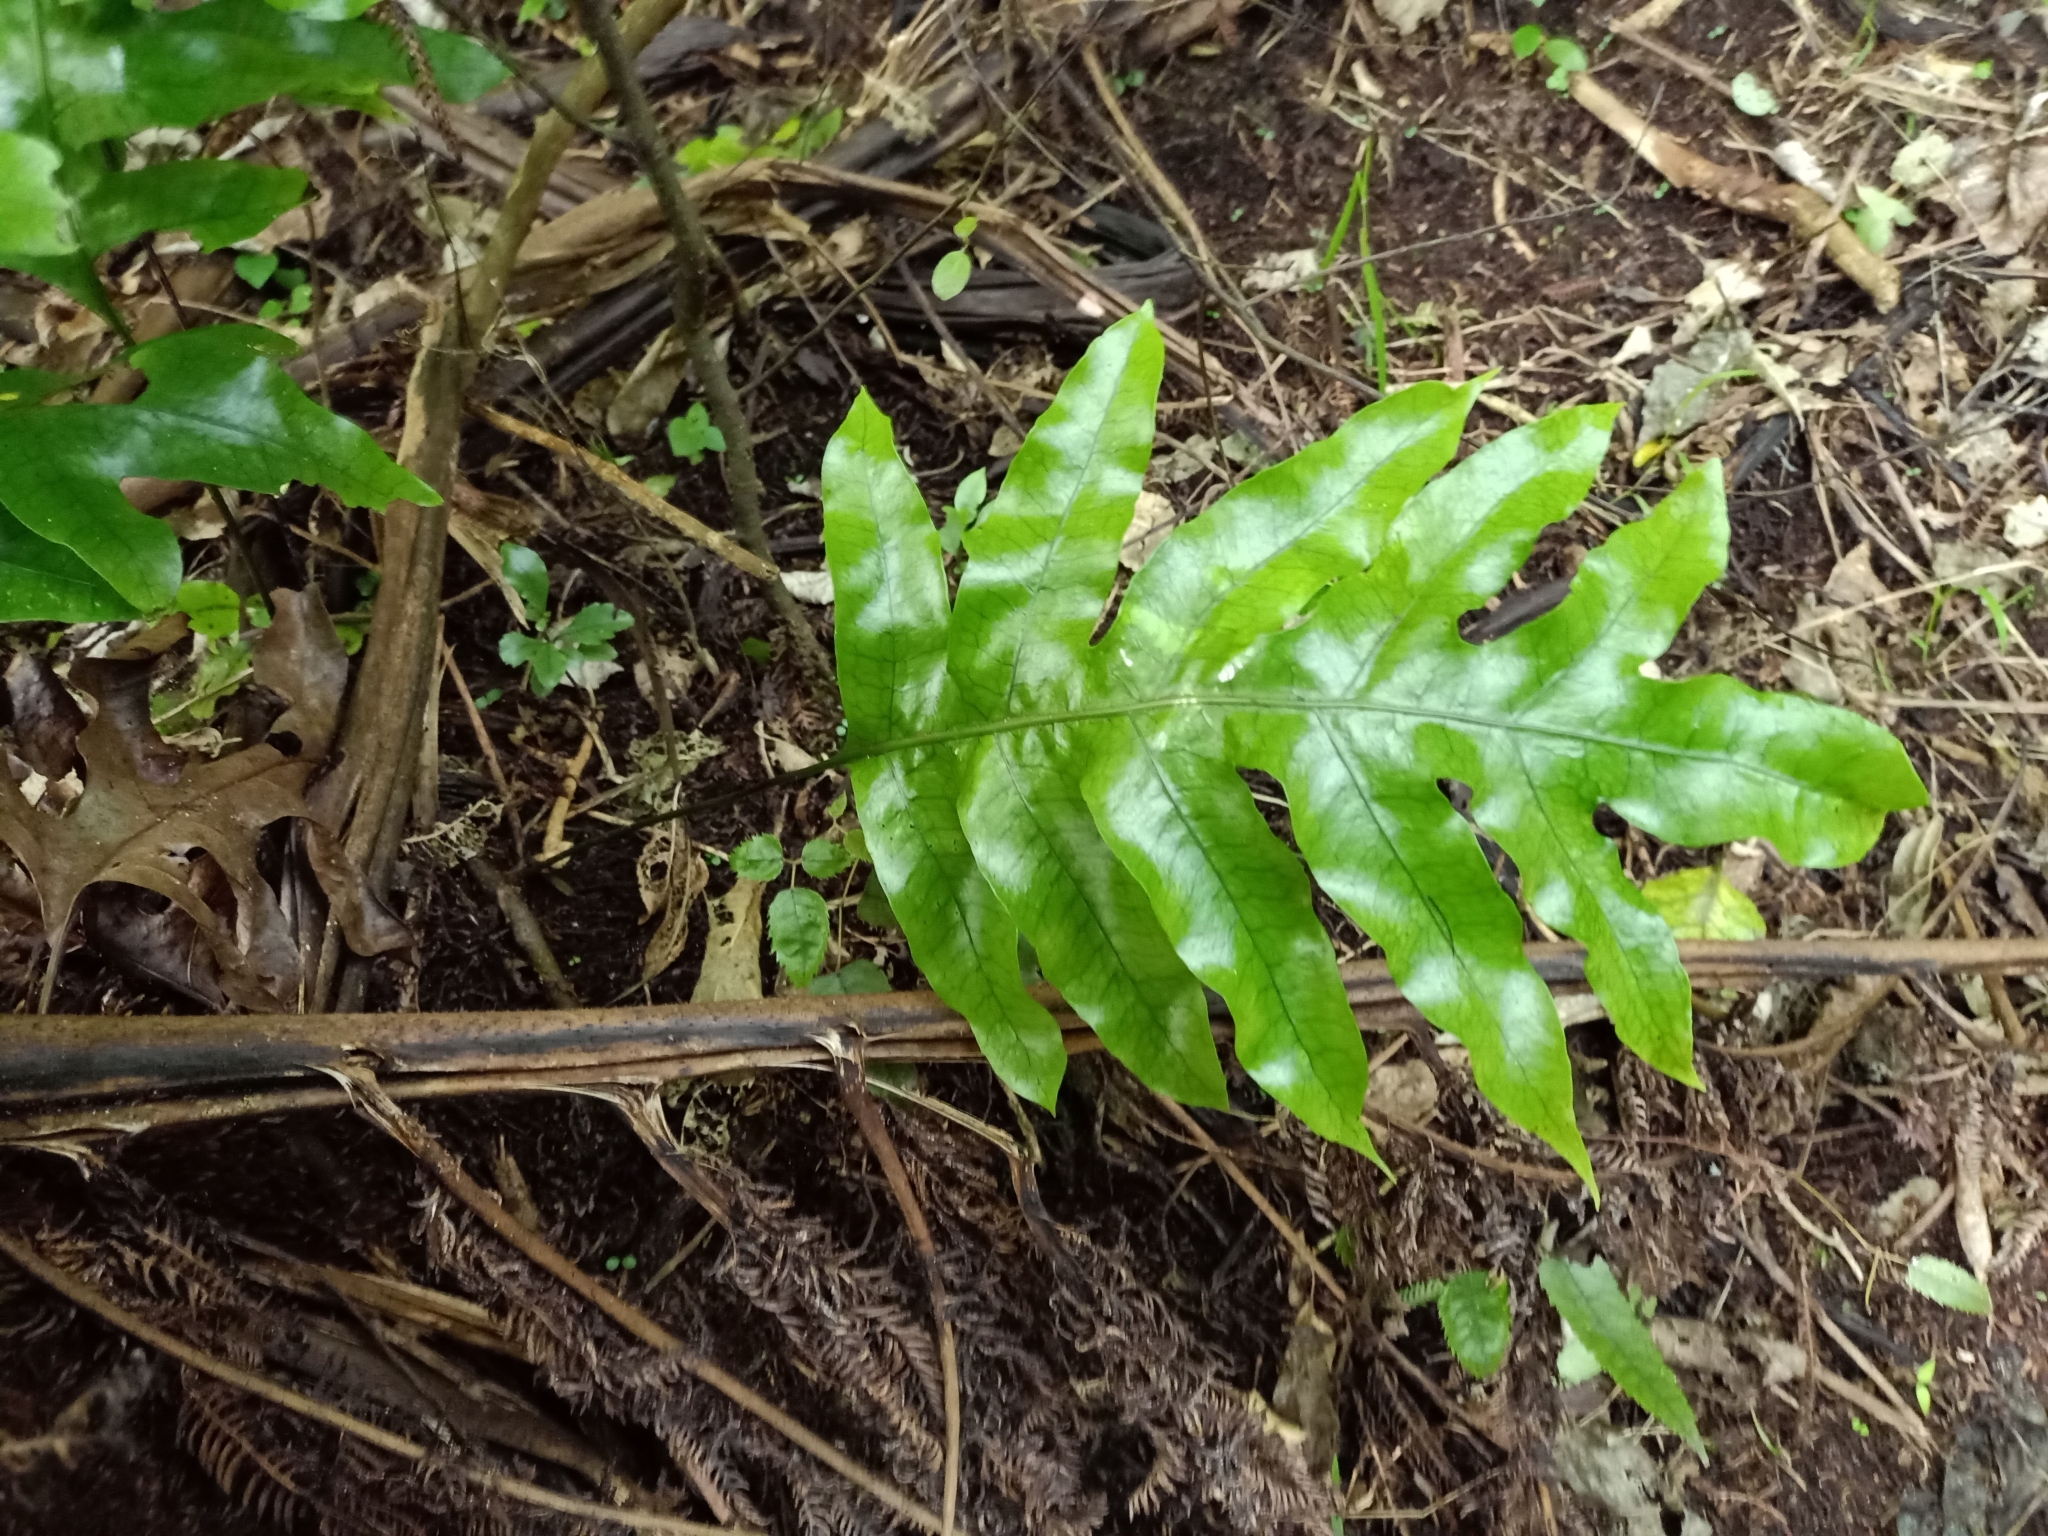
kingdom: Plantae
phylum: Tracheophyta
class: Polypodiopsida
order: Polypodiales
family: Polypodiaceae
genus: Lecanopteris
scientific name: Lecanopteris pustulata
